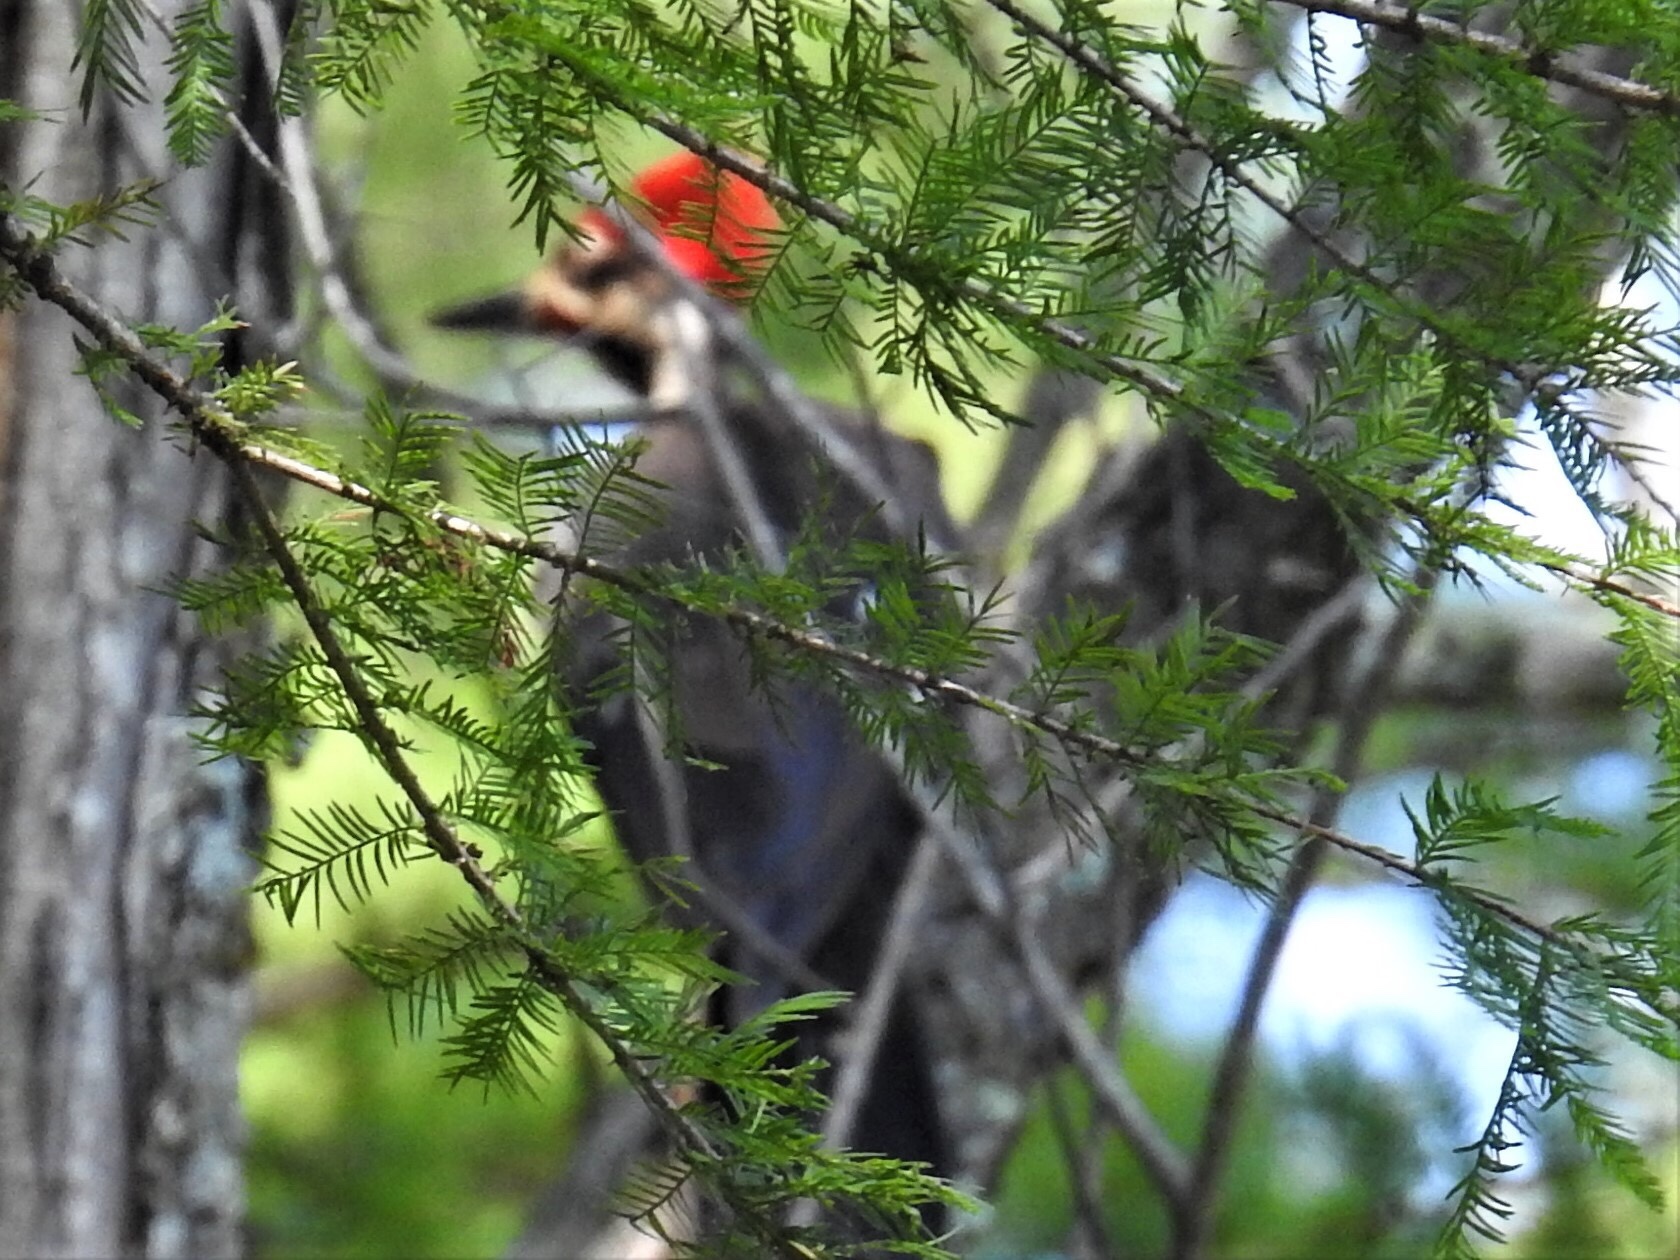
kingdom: Animalia
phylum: Chordata
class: Aves
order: Piciformes
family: Picidae
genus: Dryocopus
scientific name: Dryocopus pileatus
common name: Pileated woodpecker
